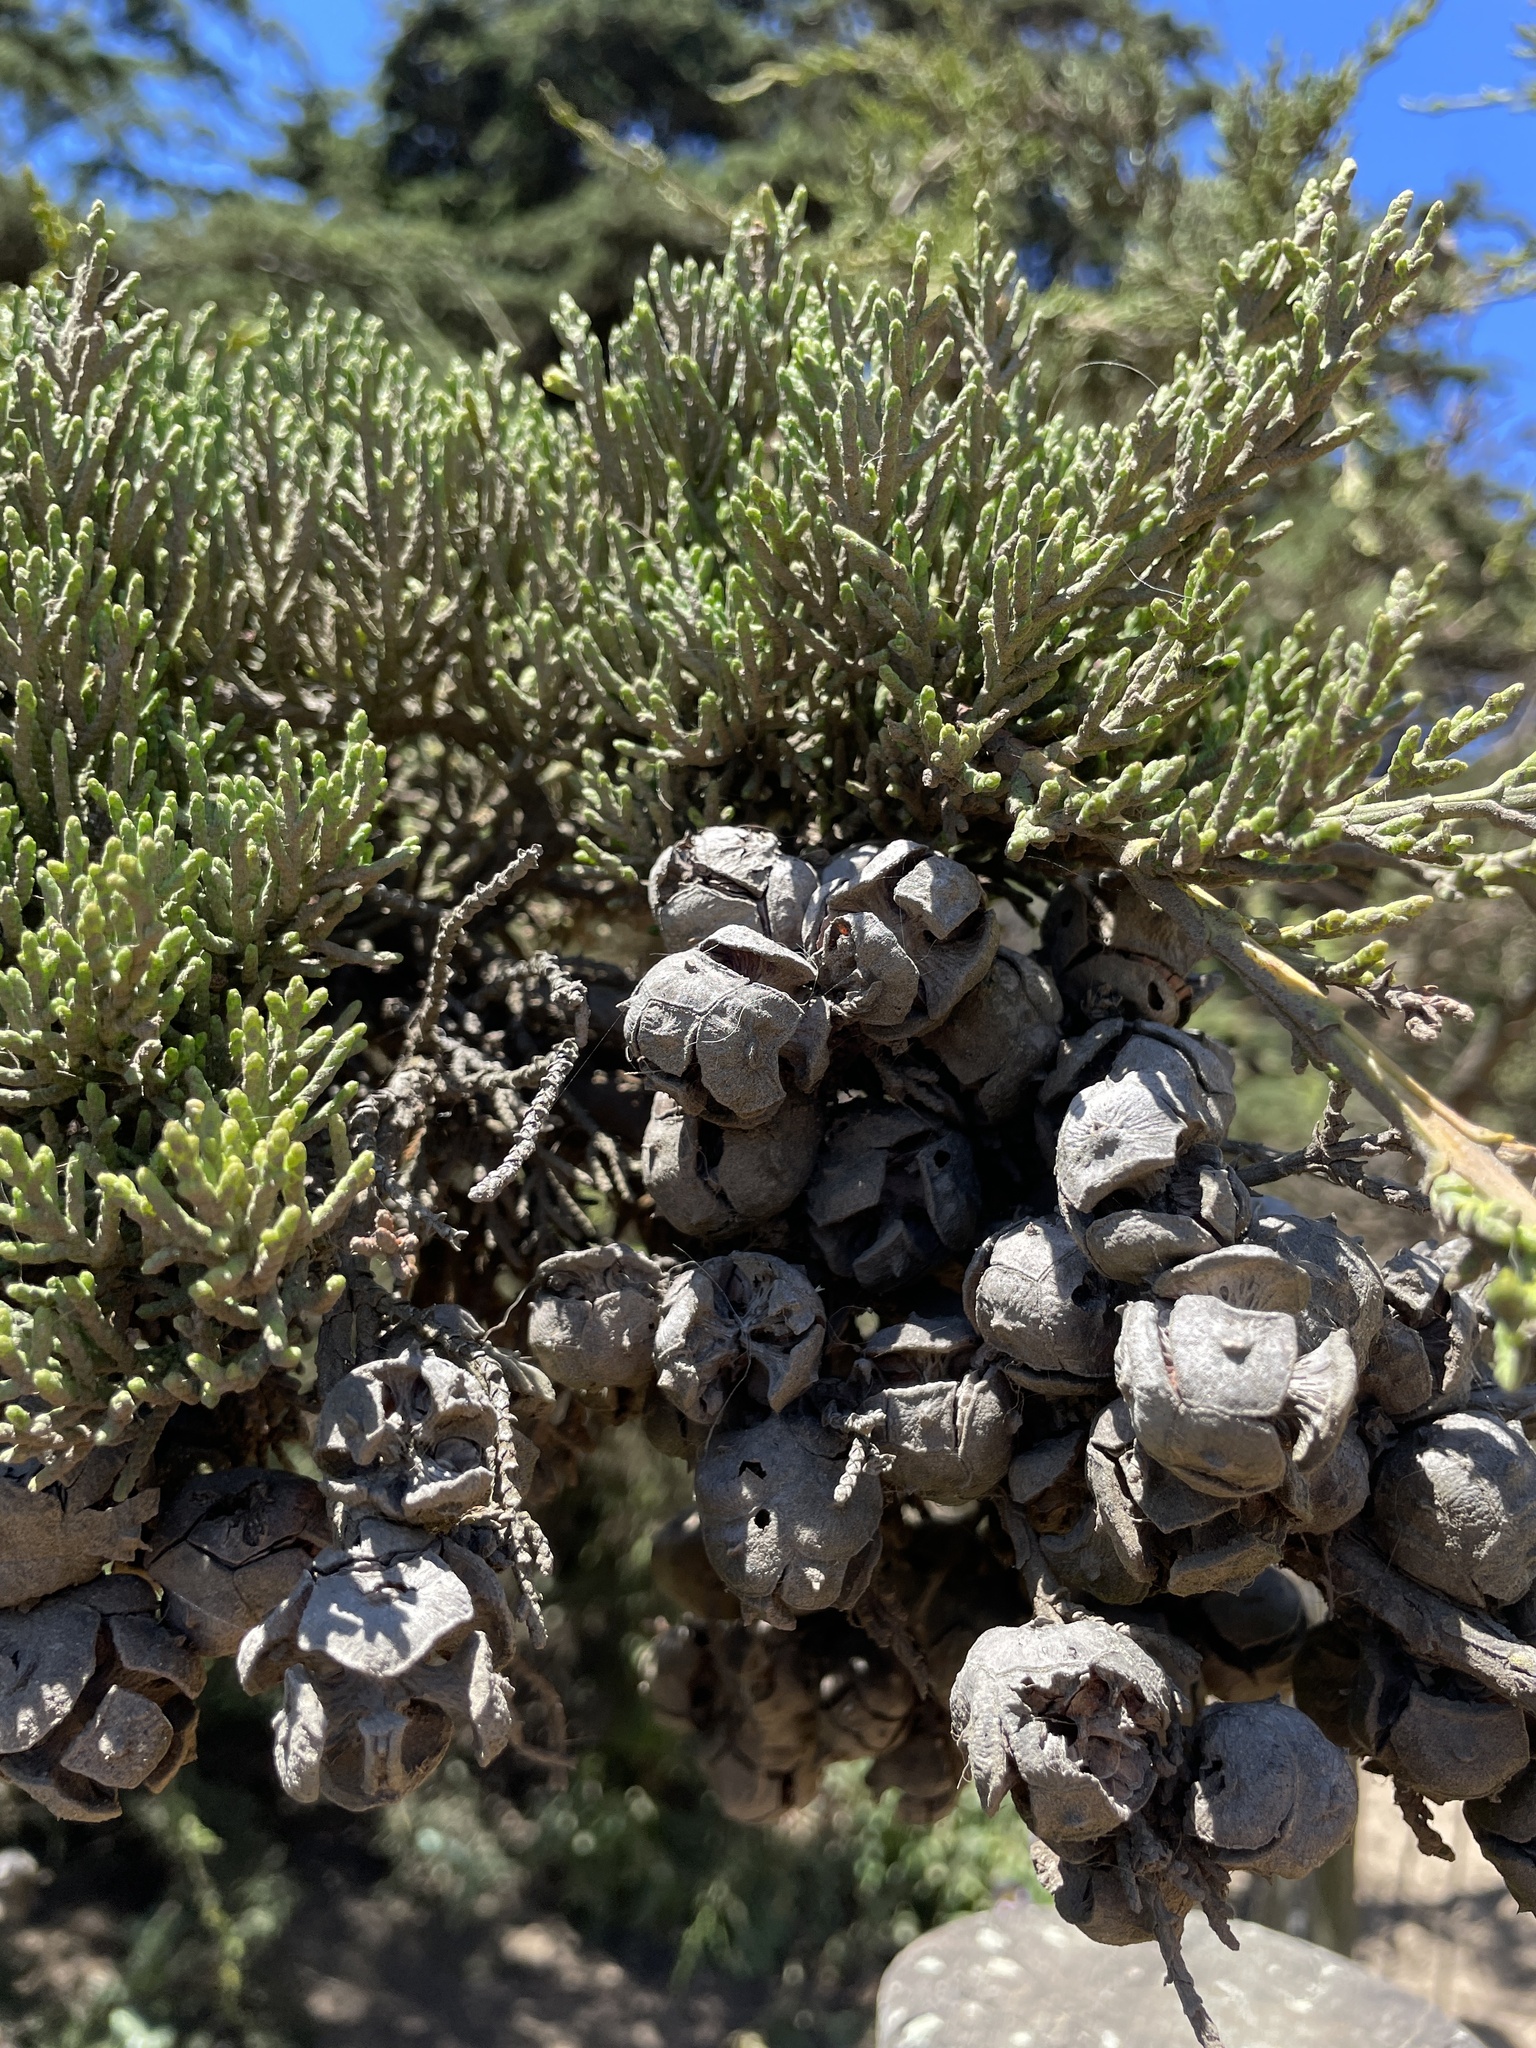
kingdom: Plantae
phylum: Tracheophyta
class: Pinopsida
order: Pinales
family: Cupressaceae
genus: Cupressus
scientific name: Cupressus macrocarpa
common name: Monterey cypress
